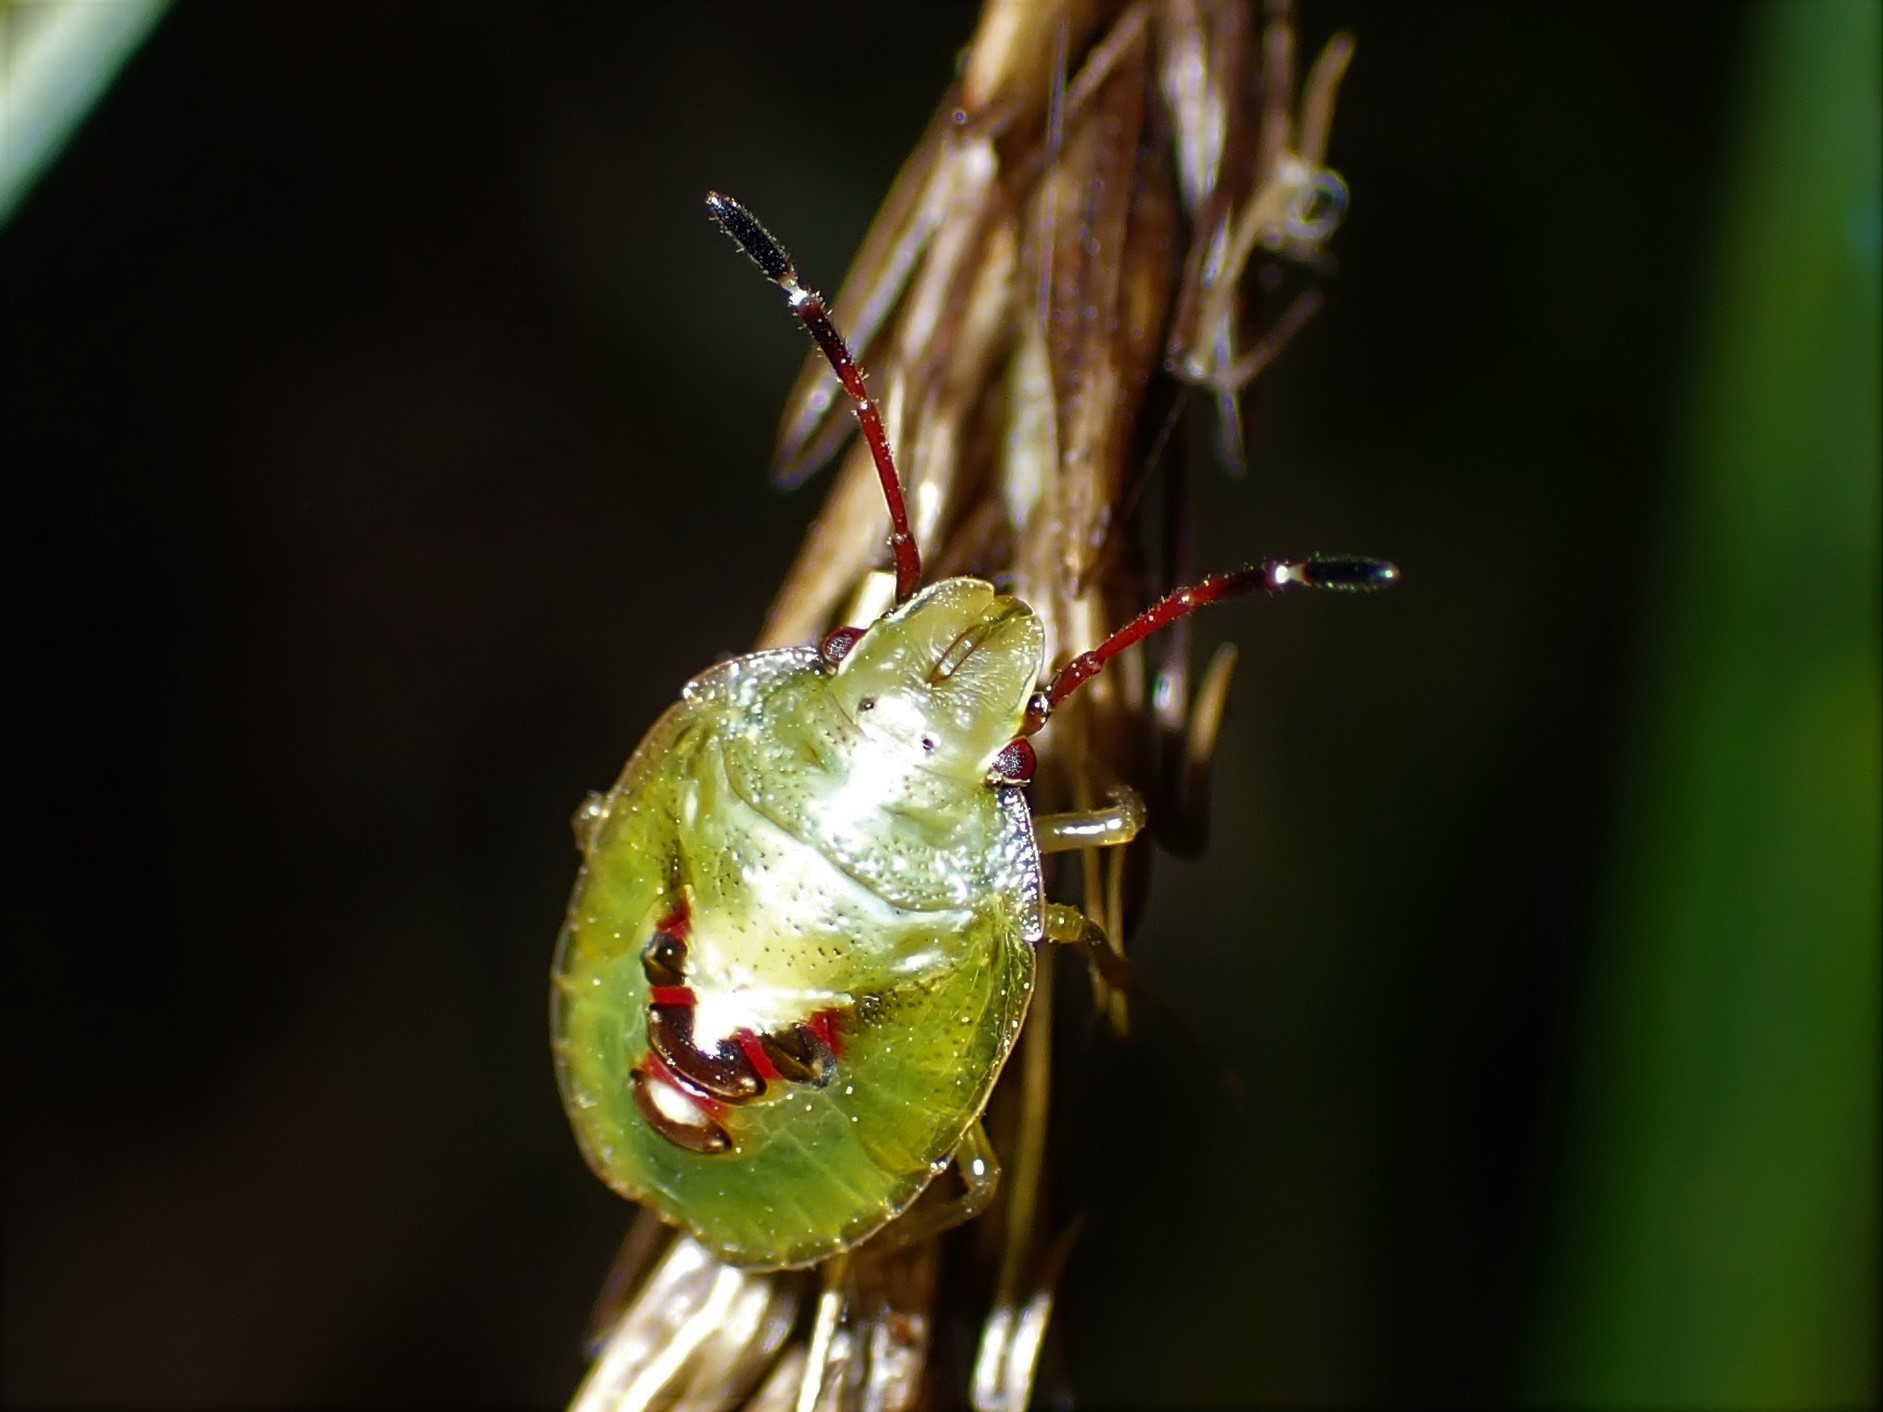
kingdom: Animalia
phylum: Arthropoda
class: Insecta
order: Hemiptera
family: Acanthosomatidae
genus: Oncacontias
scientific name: Oncacontias vittatus
